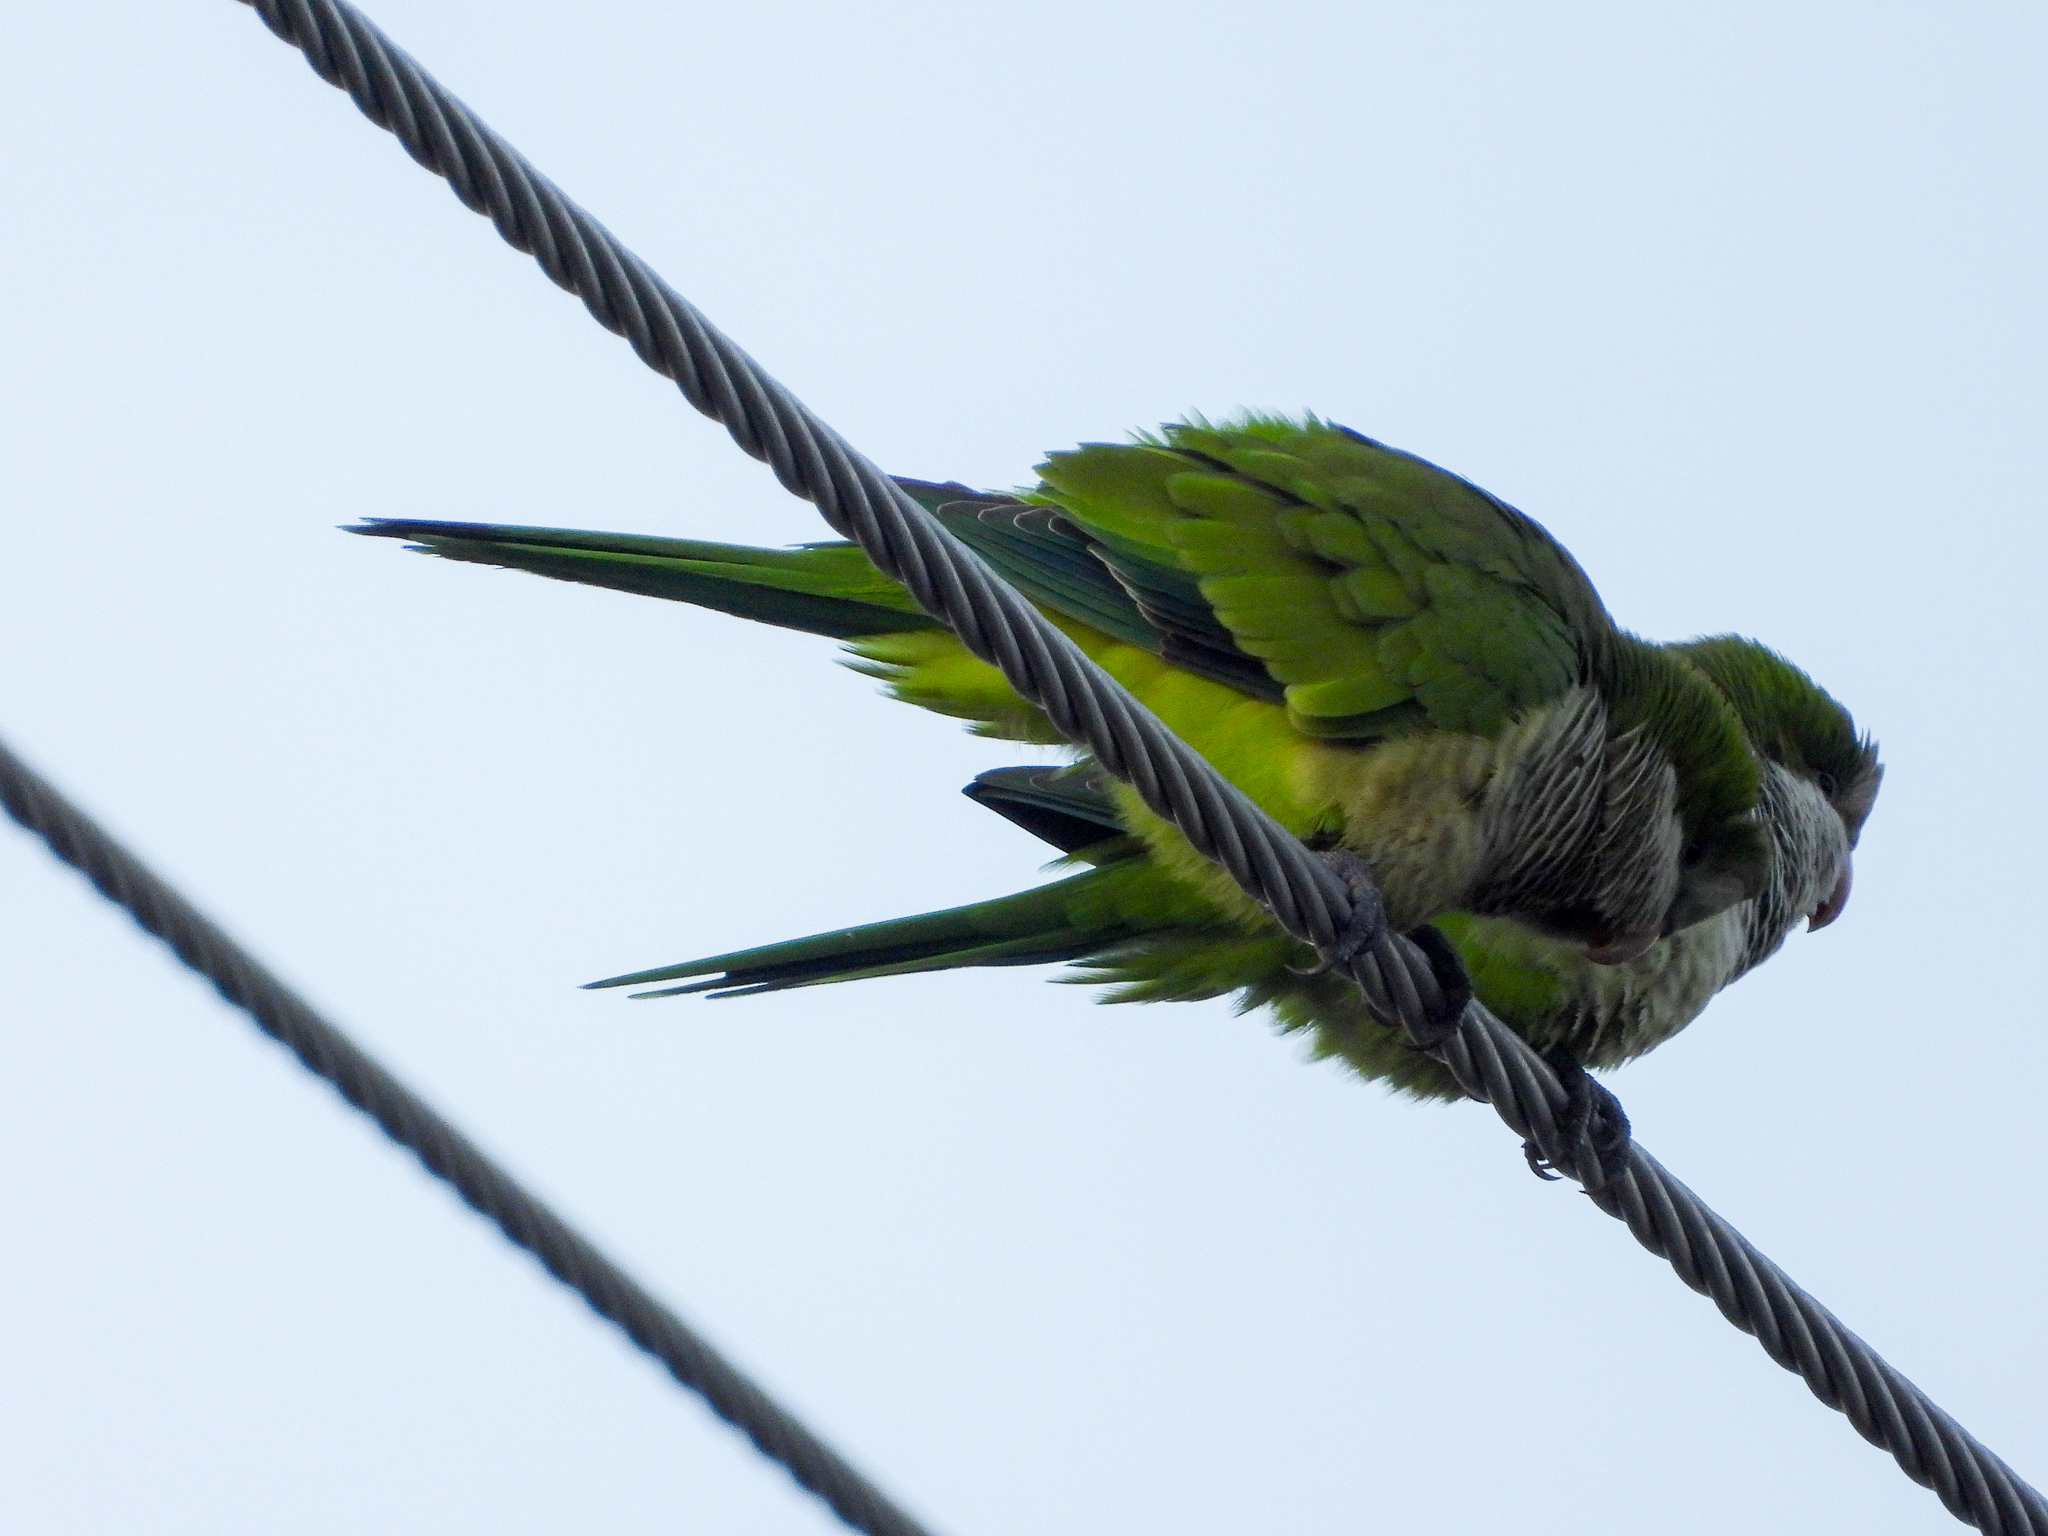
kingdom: Animalia
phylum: Chordata
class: Aves
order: Psittaciformes
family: Psittacidae
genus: Myiopsitta
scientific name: Myiopsitta monachus
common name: Monk parakeet
